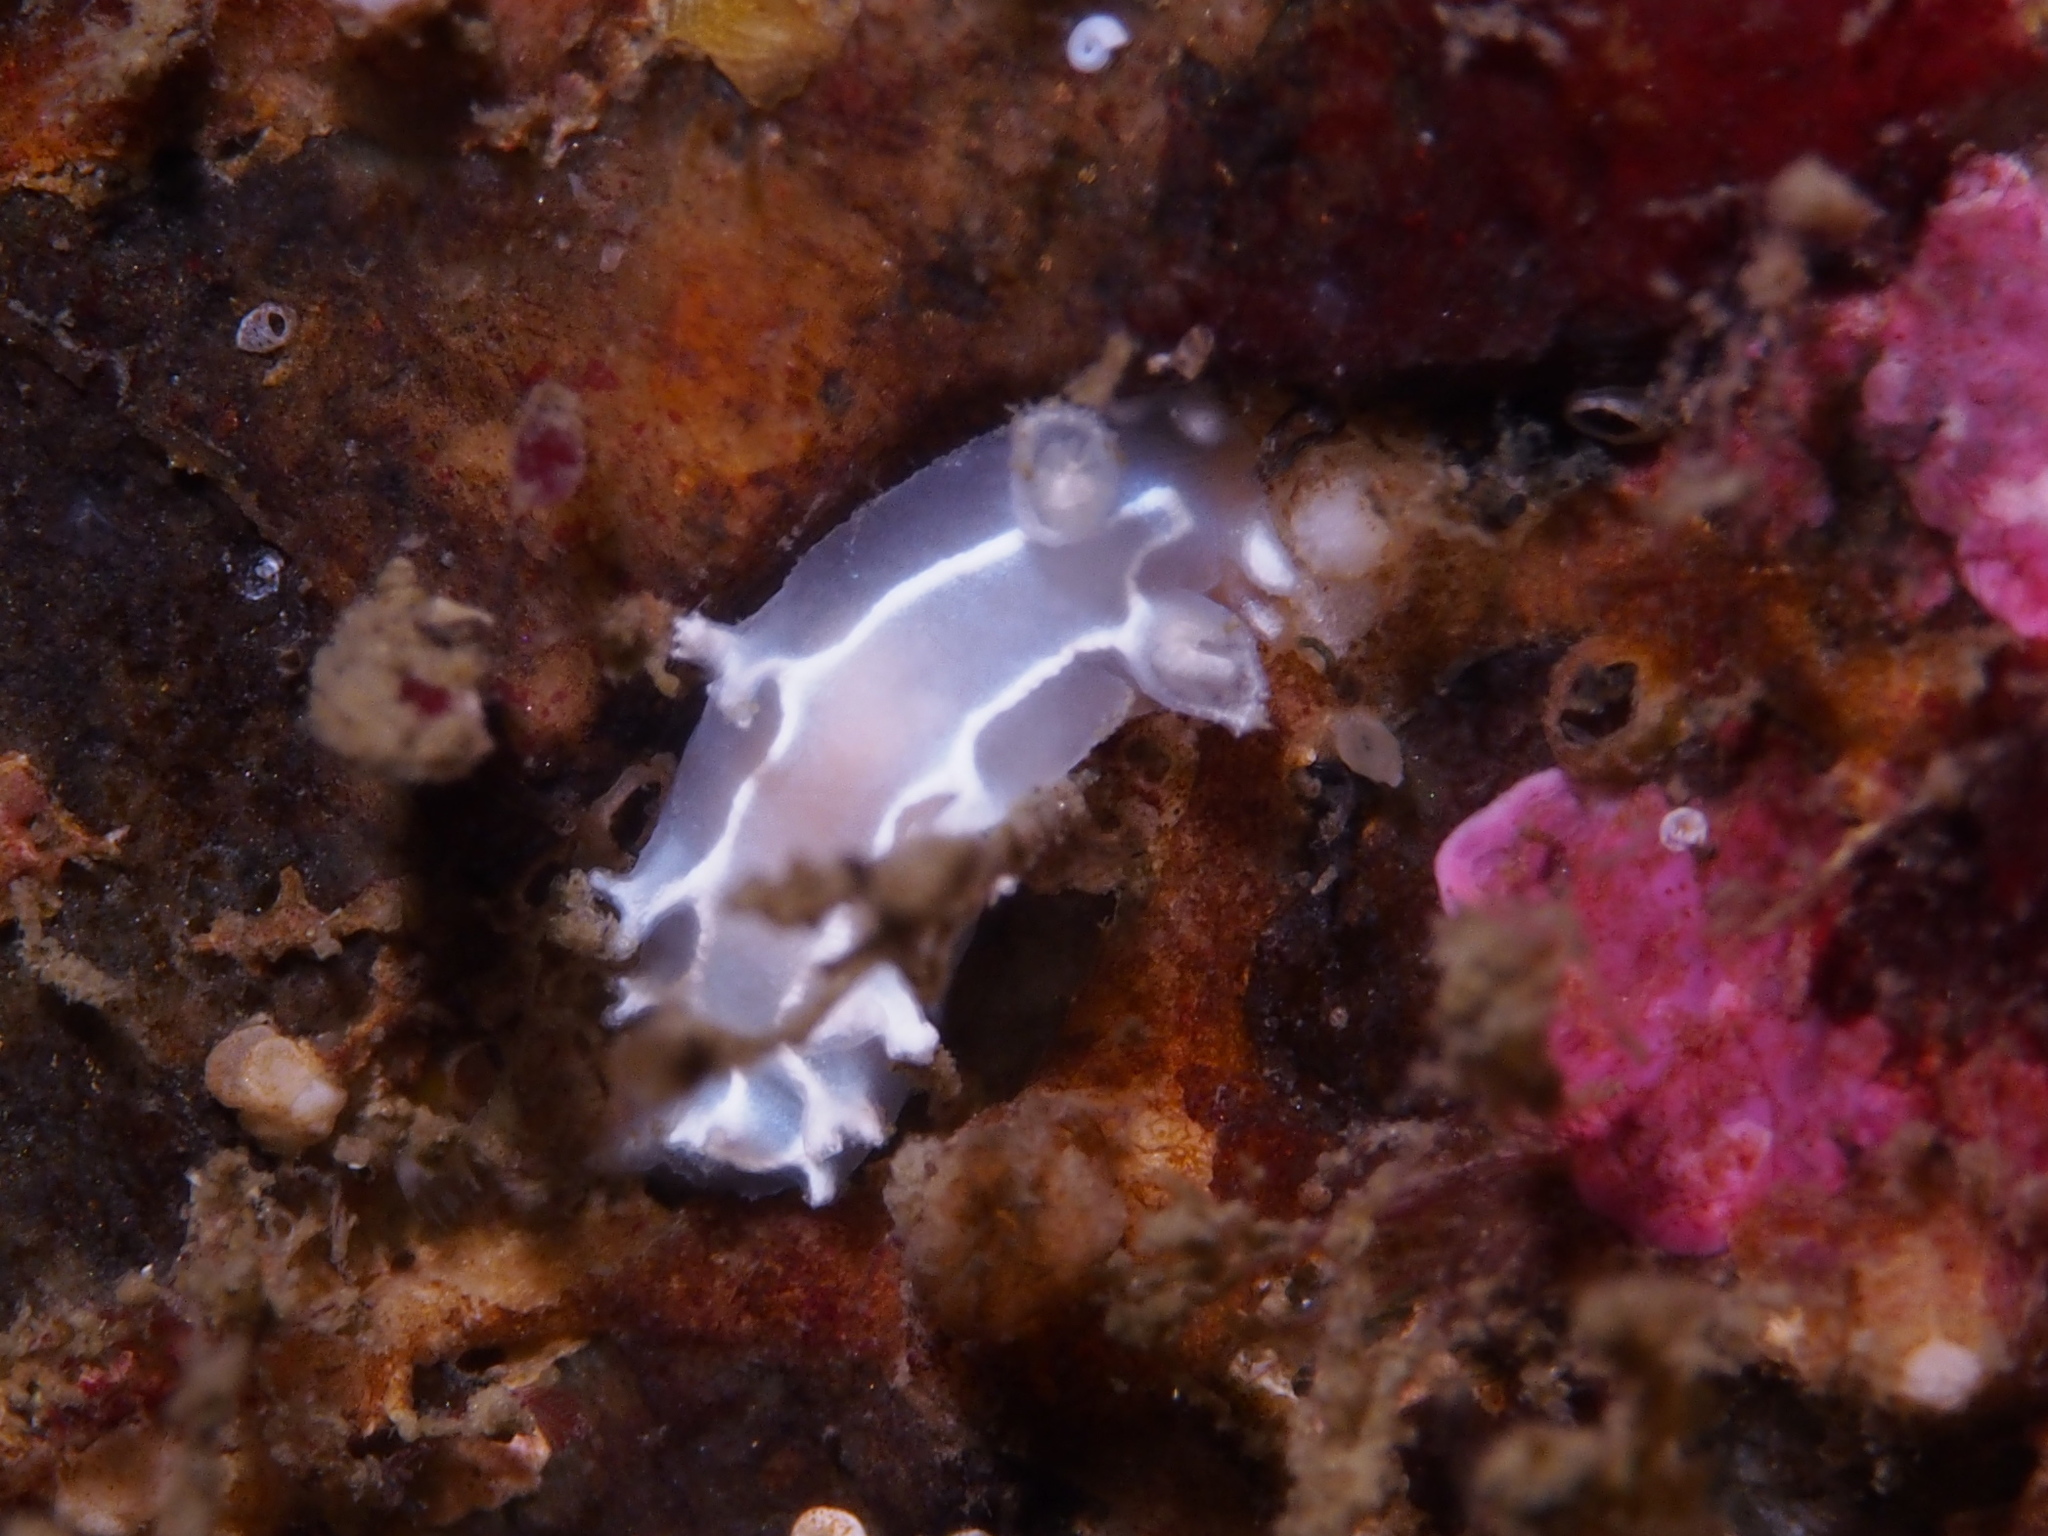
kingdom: Animalia
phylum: Mollusca
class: Gastropoda
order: Nudibranchia
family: Tritoniidae
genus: Duvaucelia
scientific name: Duvaucelia lineata
